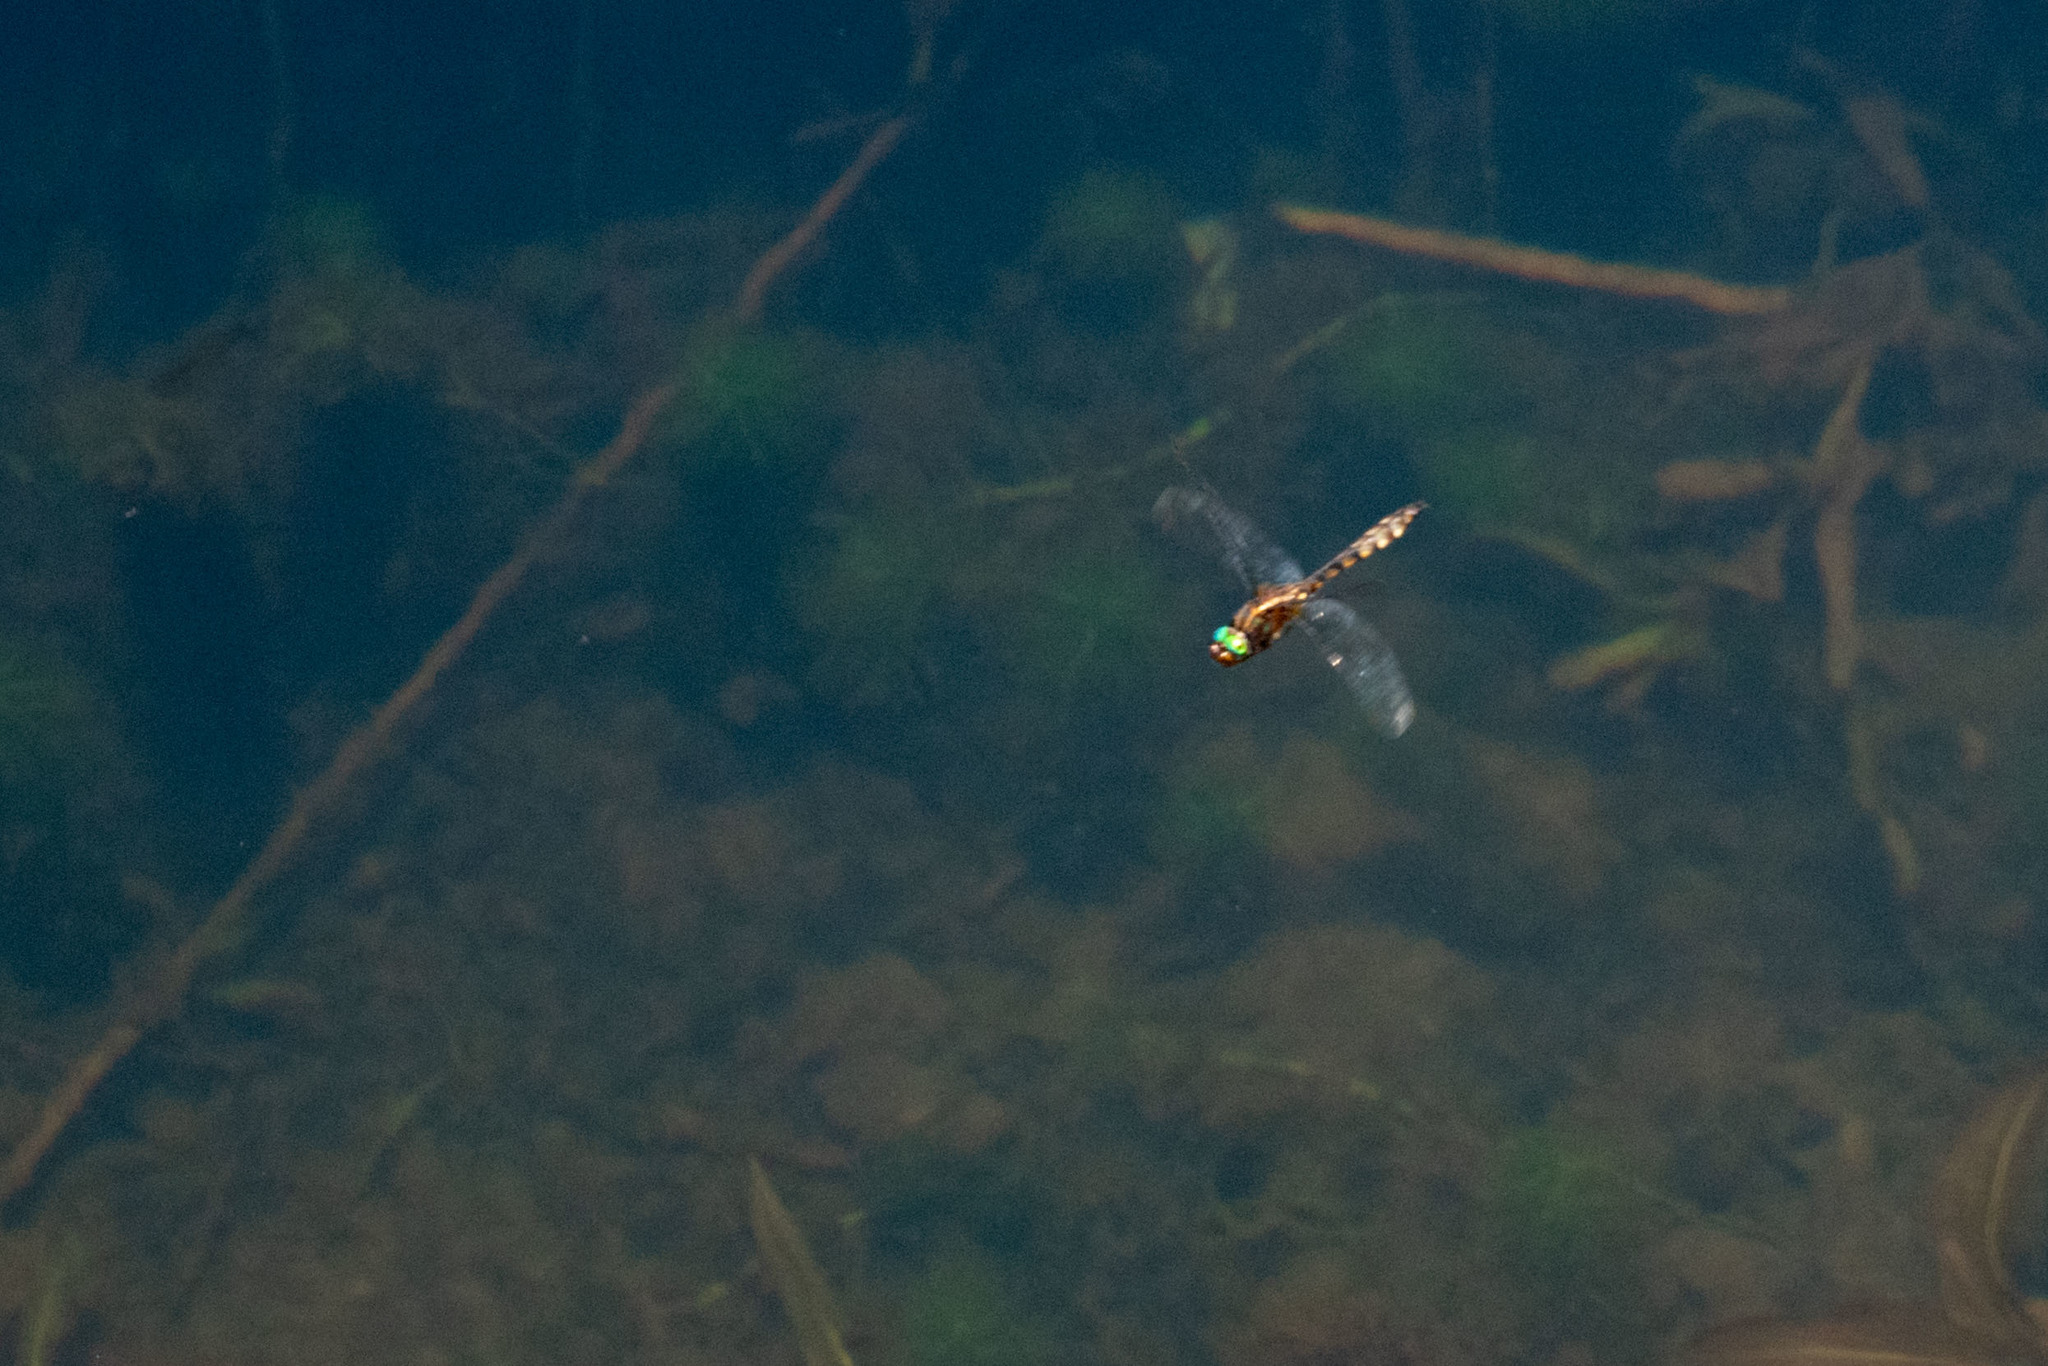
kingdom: Animalia
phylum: Arthropoda
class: Insecta
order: Odonata
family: Corduliidae
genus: Rialla
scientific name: Rialla villosa
